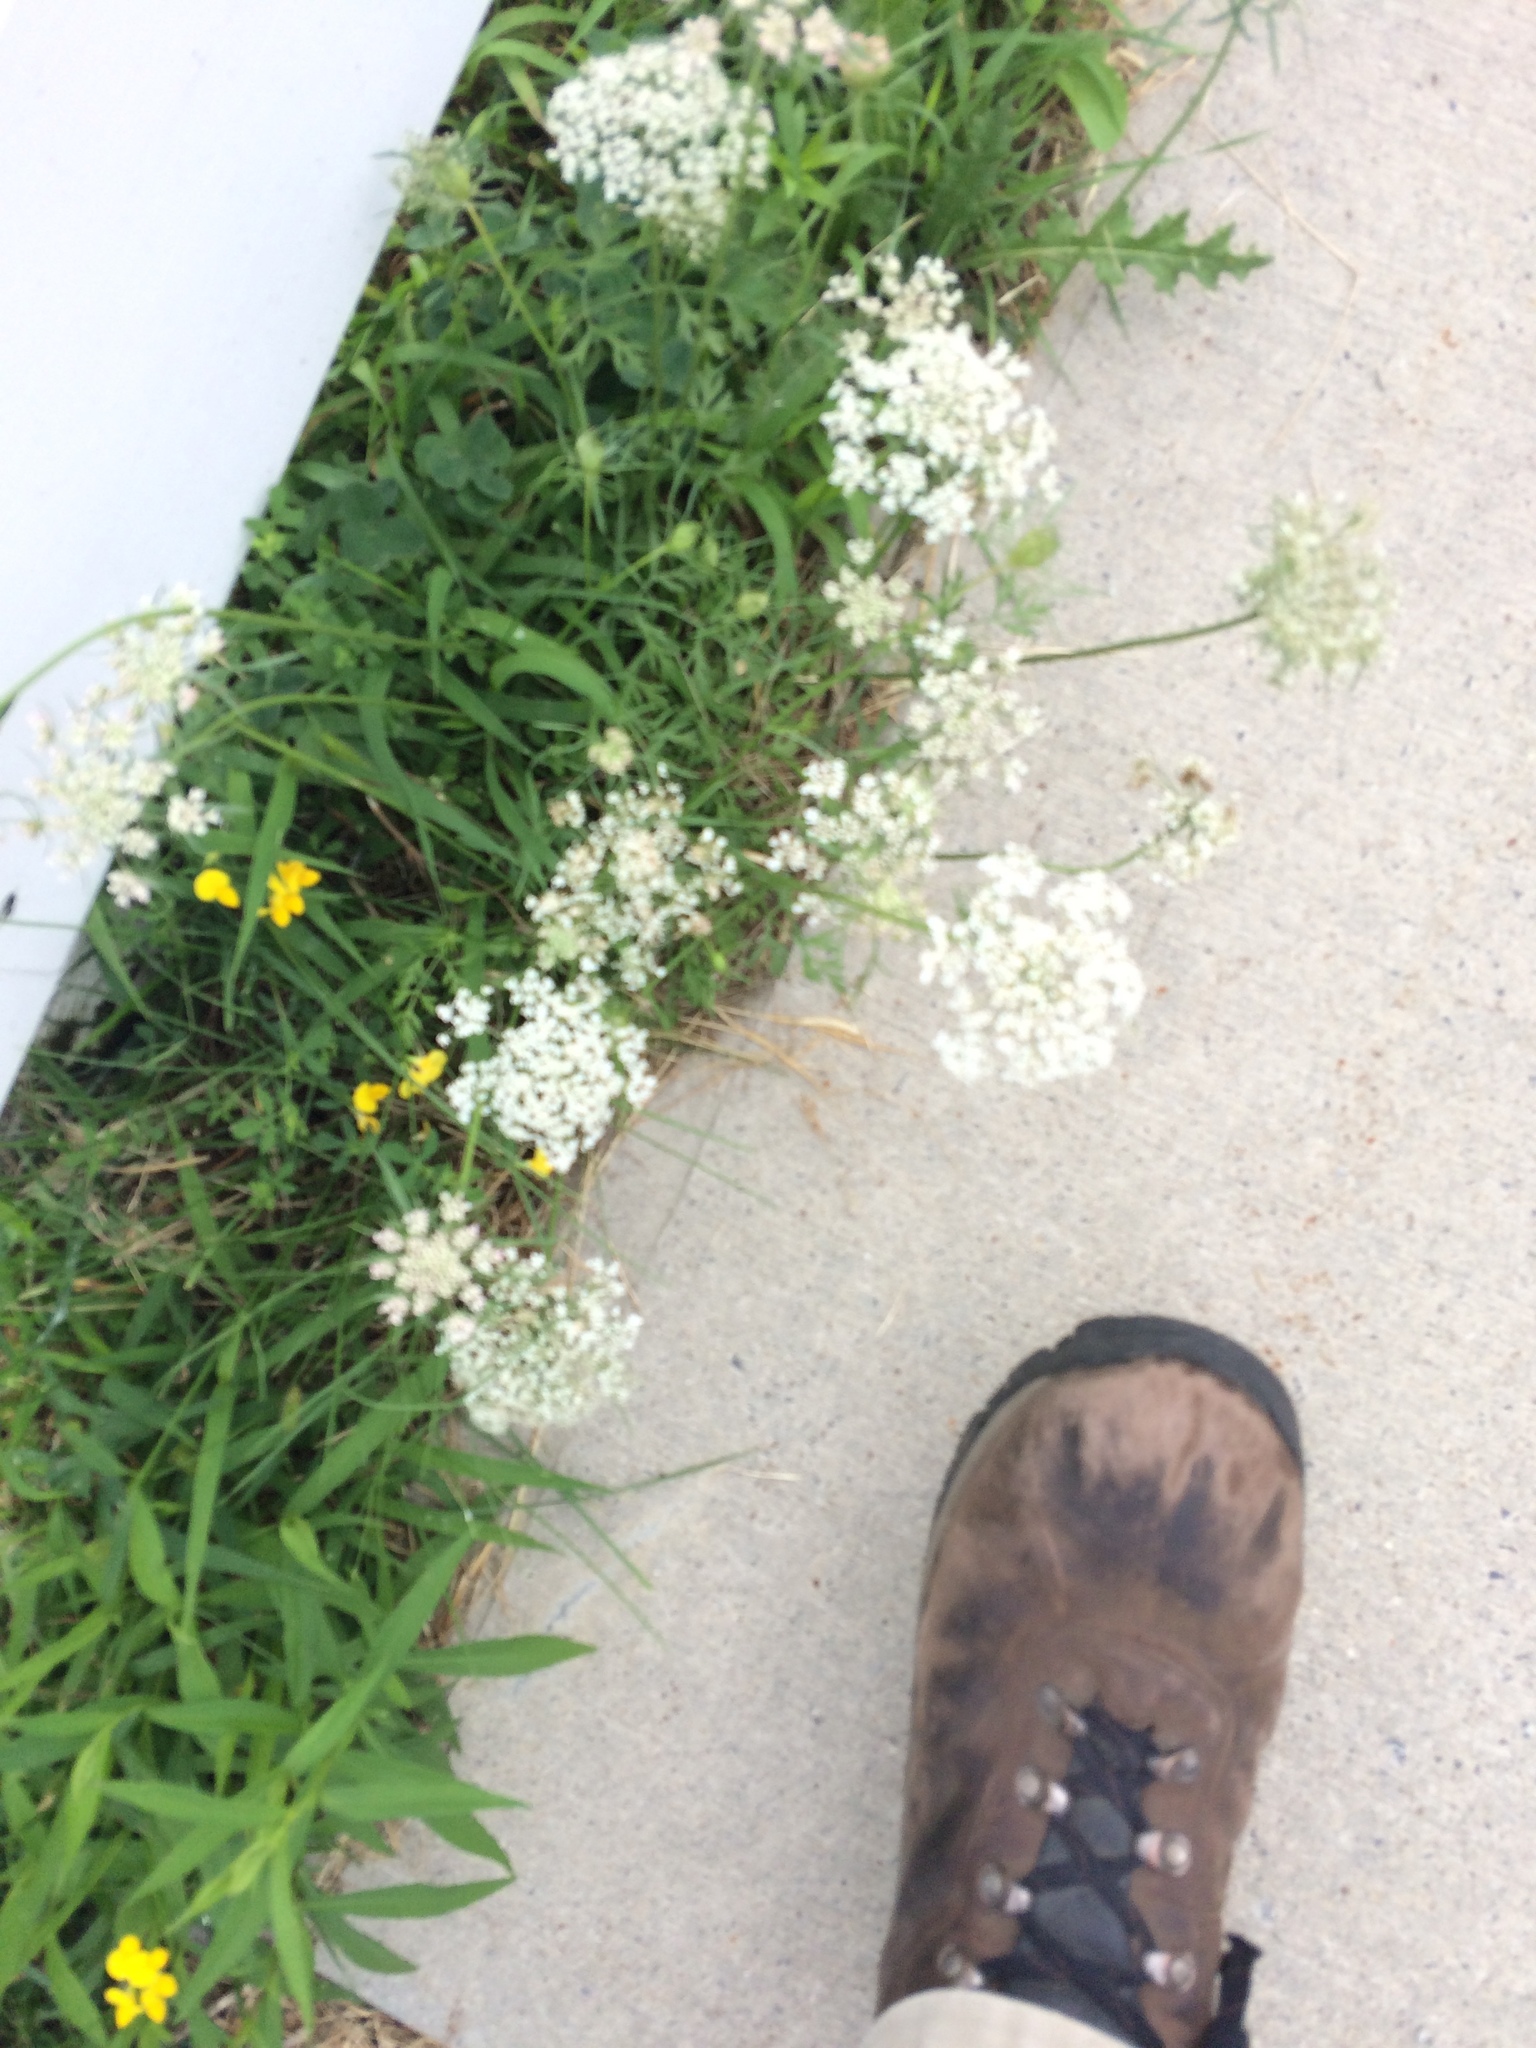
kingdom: Plantae
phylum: Tracheophyta
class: Magnoliopsida
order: Apiales
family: Apiaceae
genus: Daucus
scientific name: Daucus carota
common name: Wild carrot
